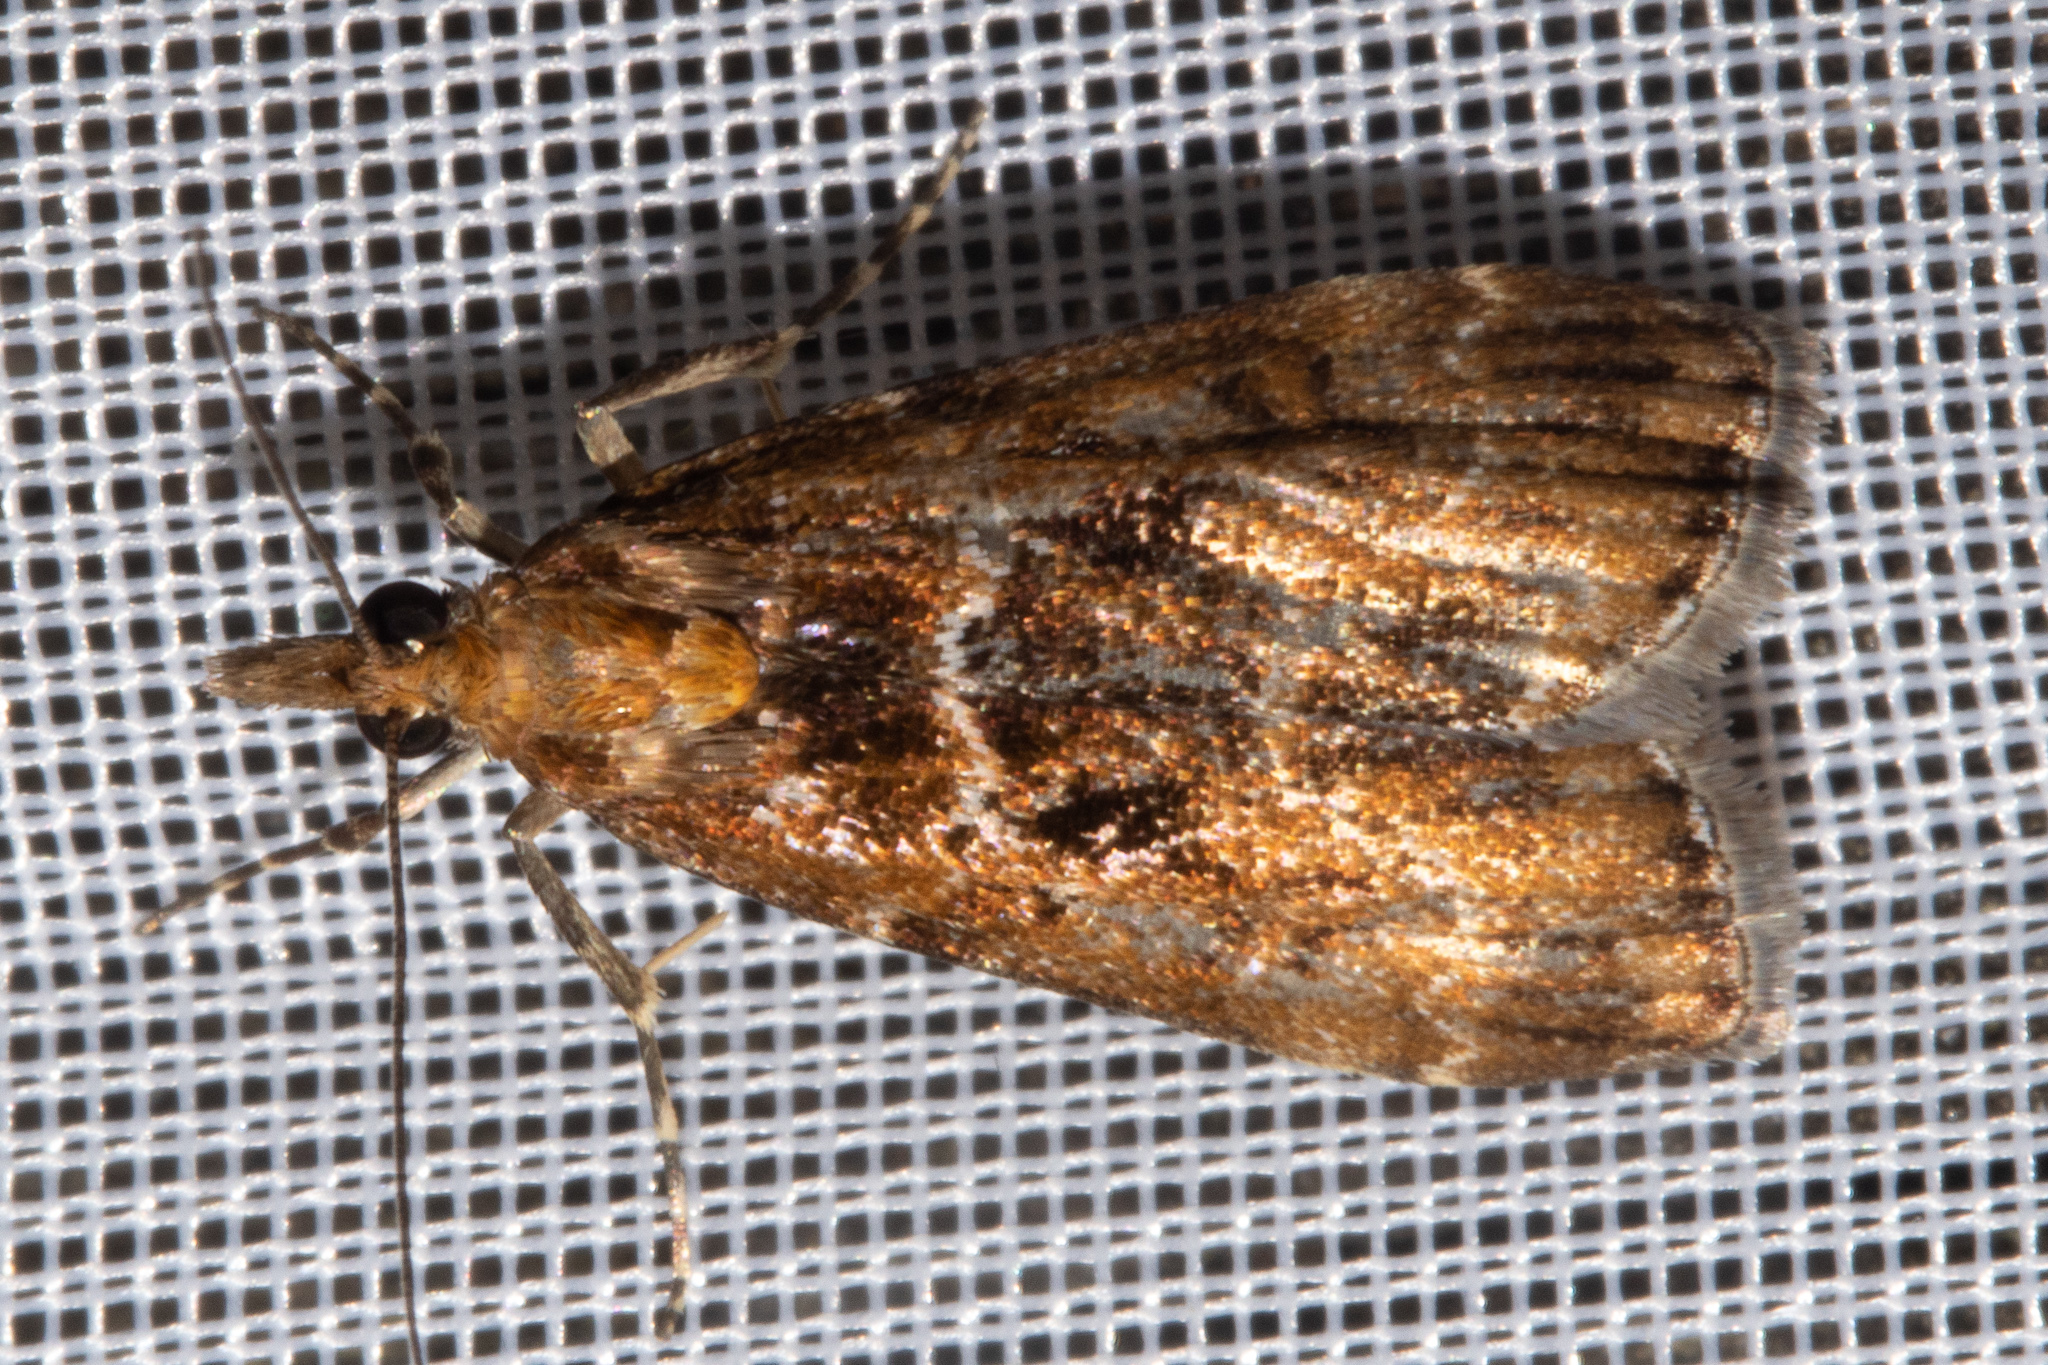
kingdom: Animalia
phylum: Arthropoda
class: Insecta
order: Lepidoptera
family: Crambidae
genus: Scoparia
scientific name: Scoparia animosa
